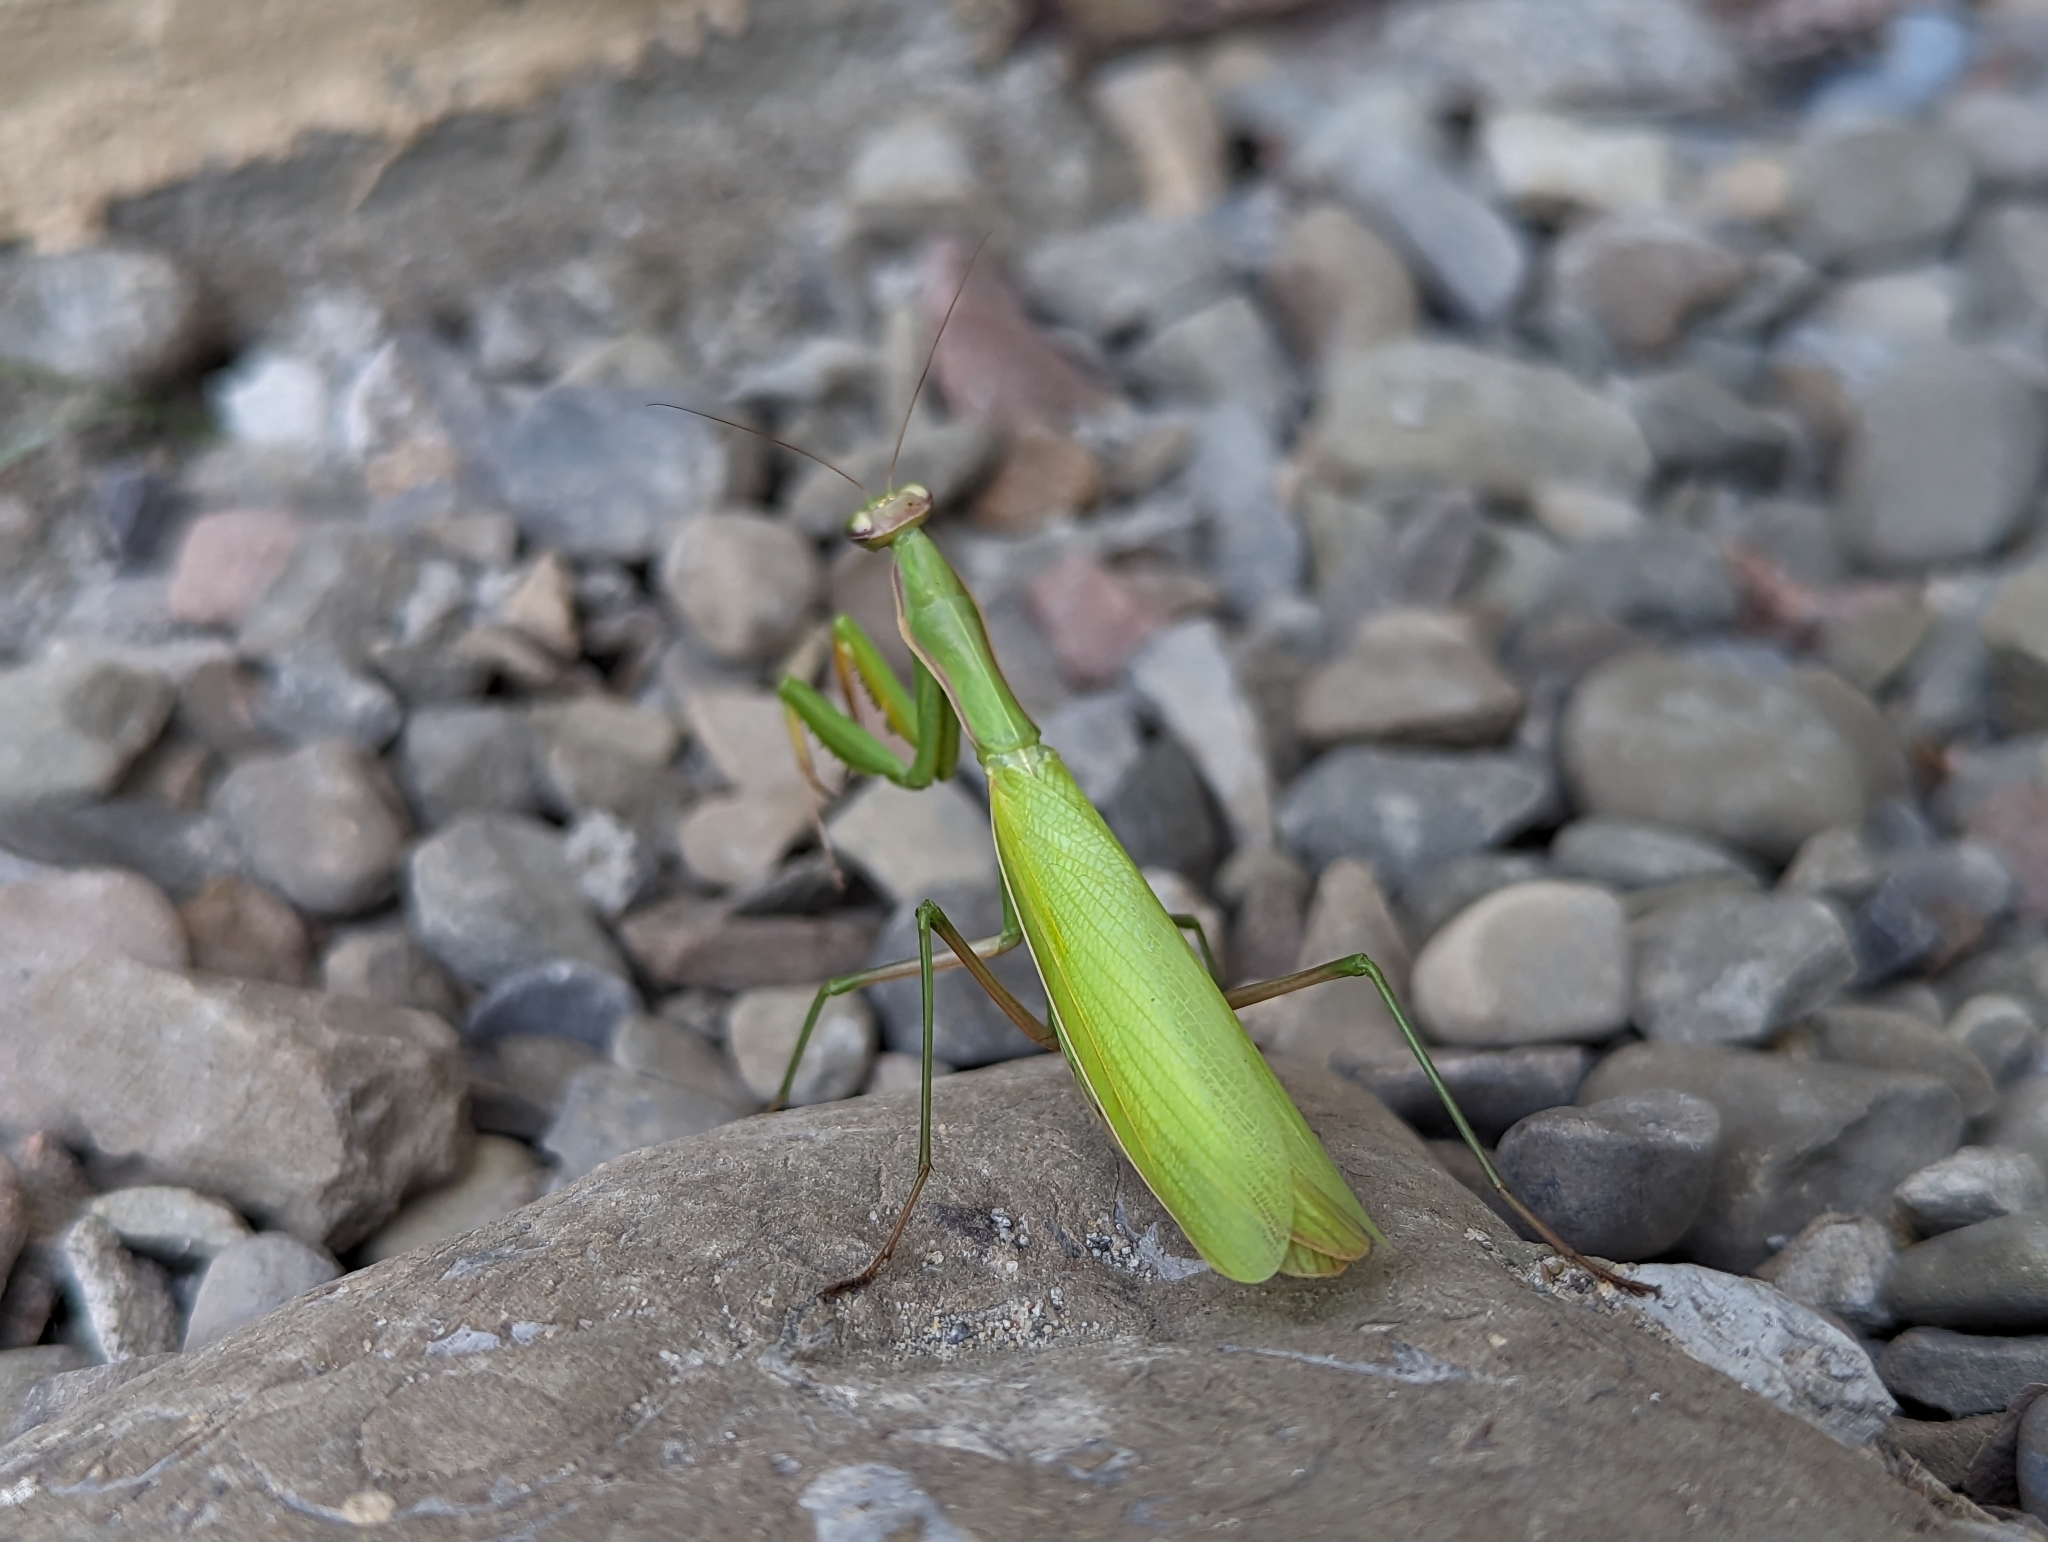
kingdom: Animalia
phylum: Arthropoda
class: Insecta
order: Mantodea
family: Mantidae
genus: Mantis
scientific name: Mantis religiosa
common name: Praying mantis
